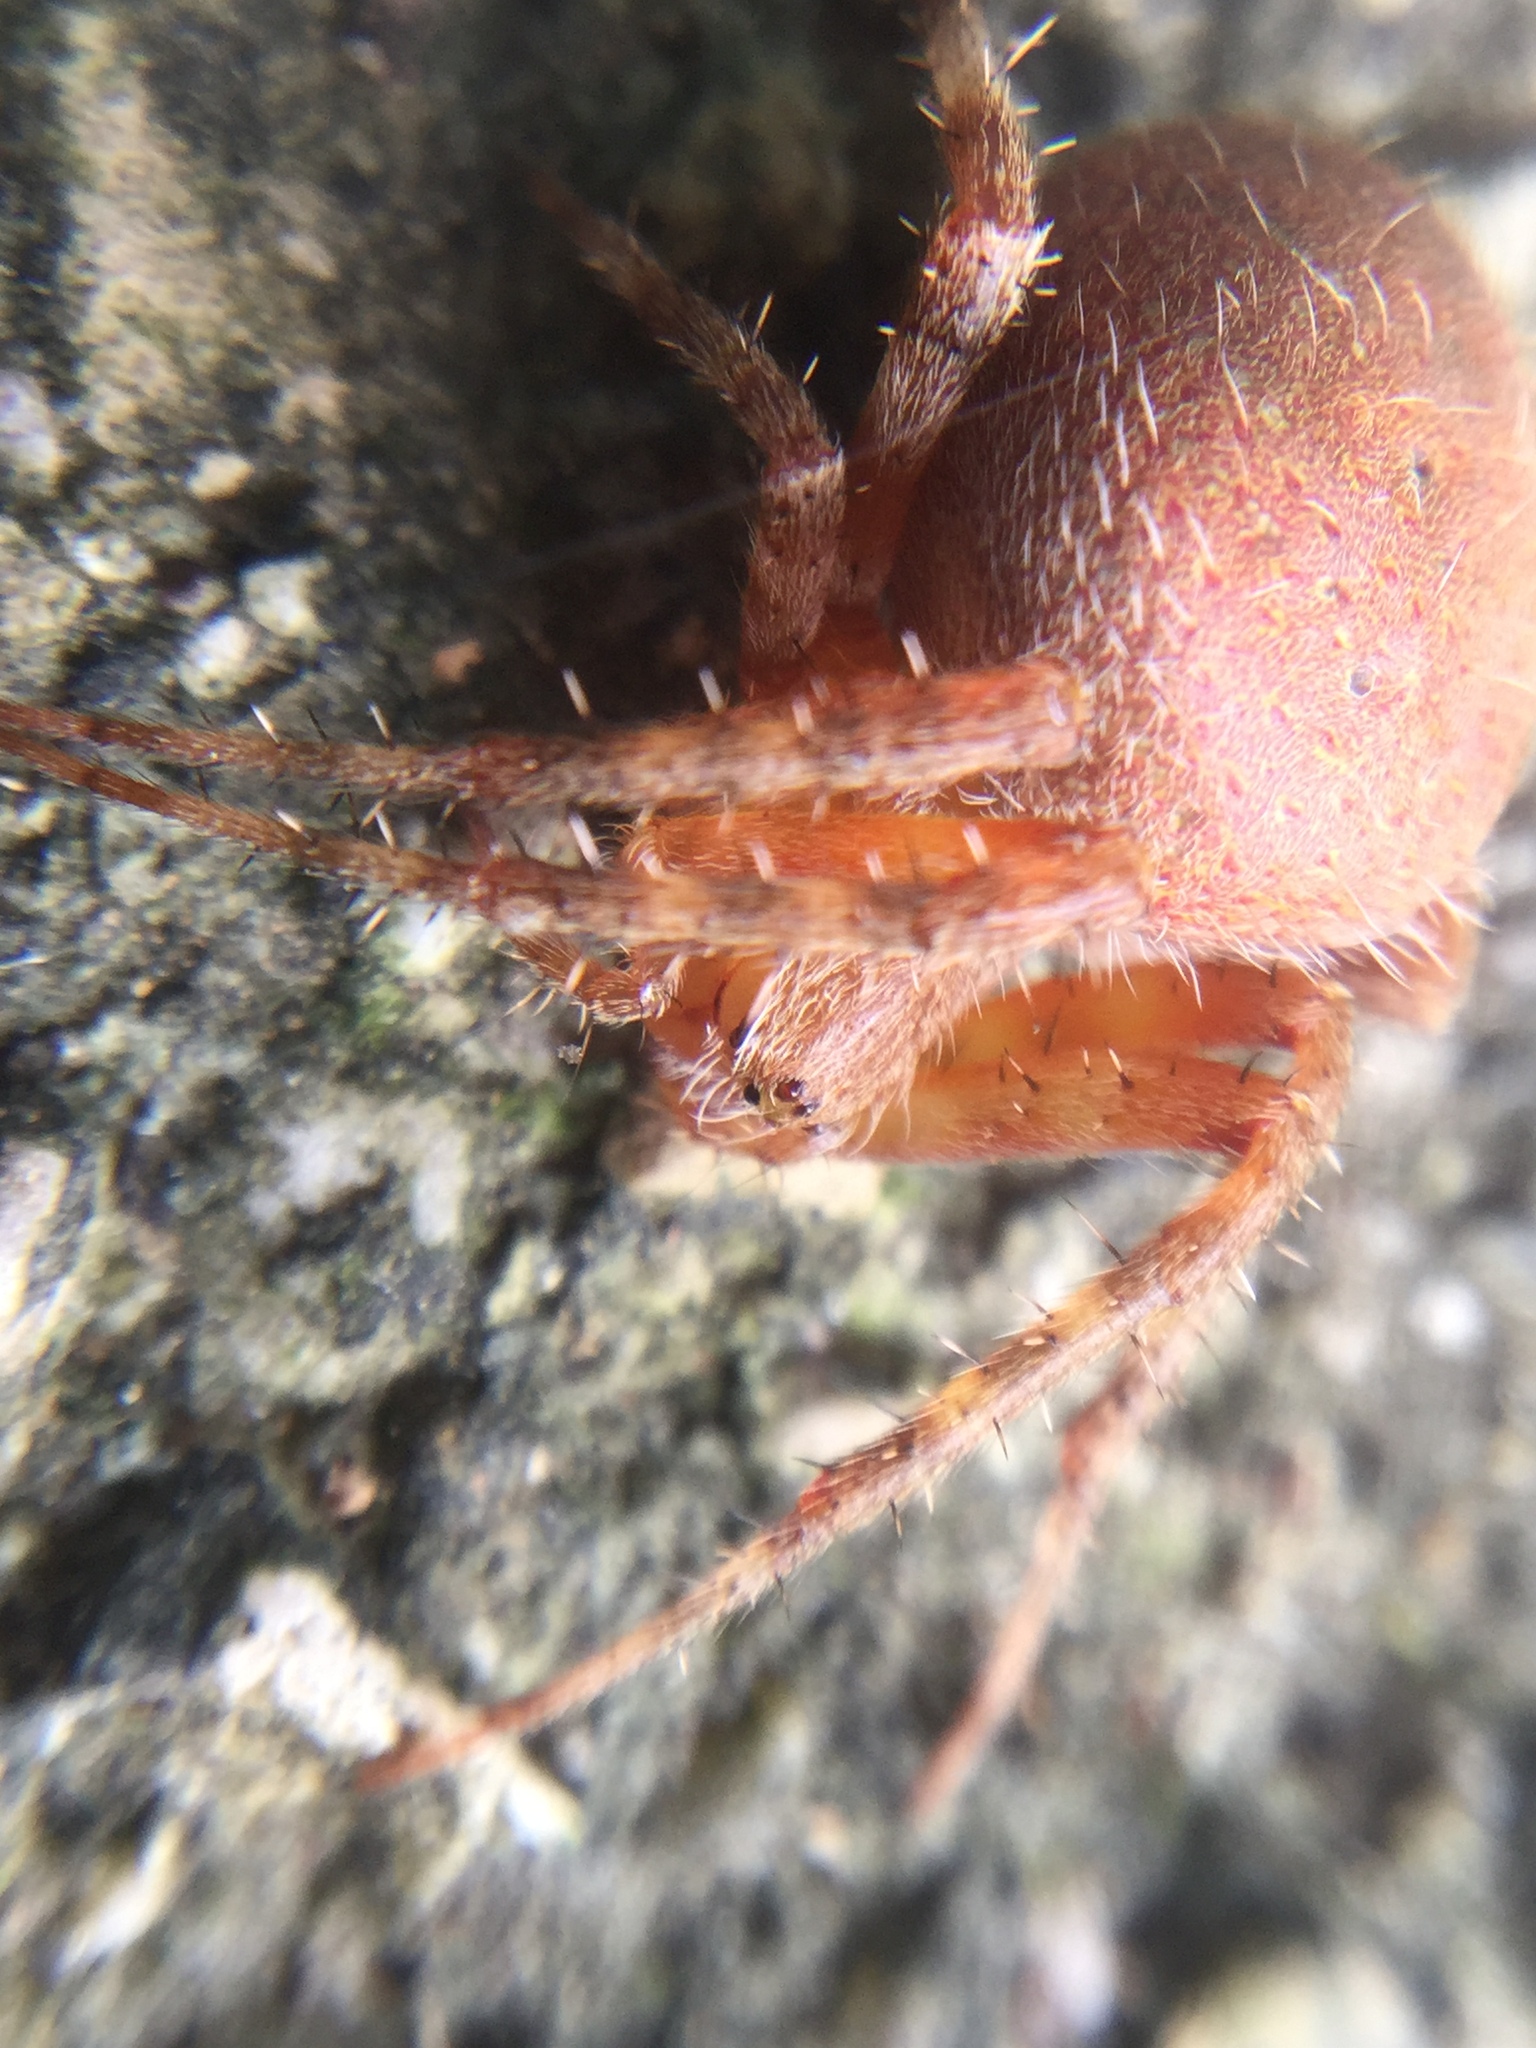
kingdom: Animalia
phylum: Arthropoda
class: Arachnida
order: Araneae
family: Araneidae
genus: Neoscona
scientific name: Neoscona crucifera
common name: Spotted orbweaver
